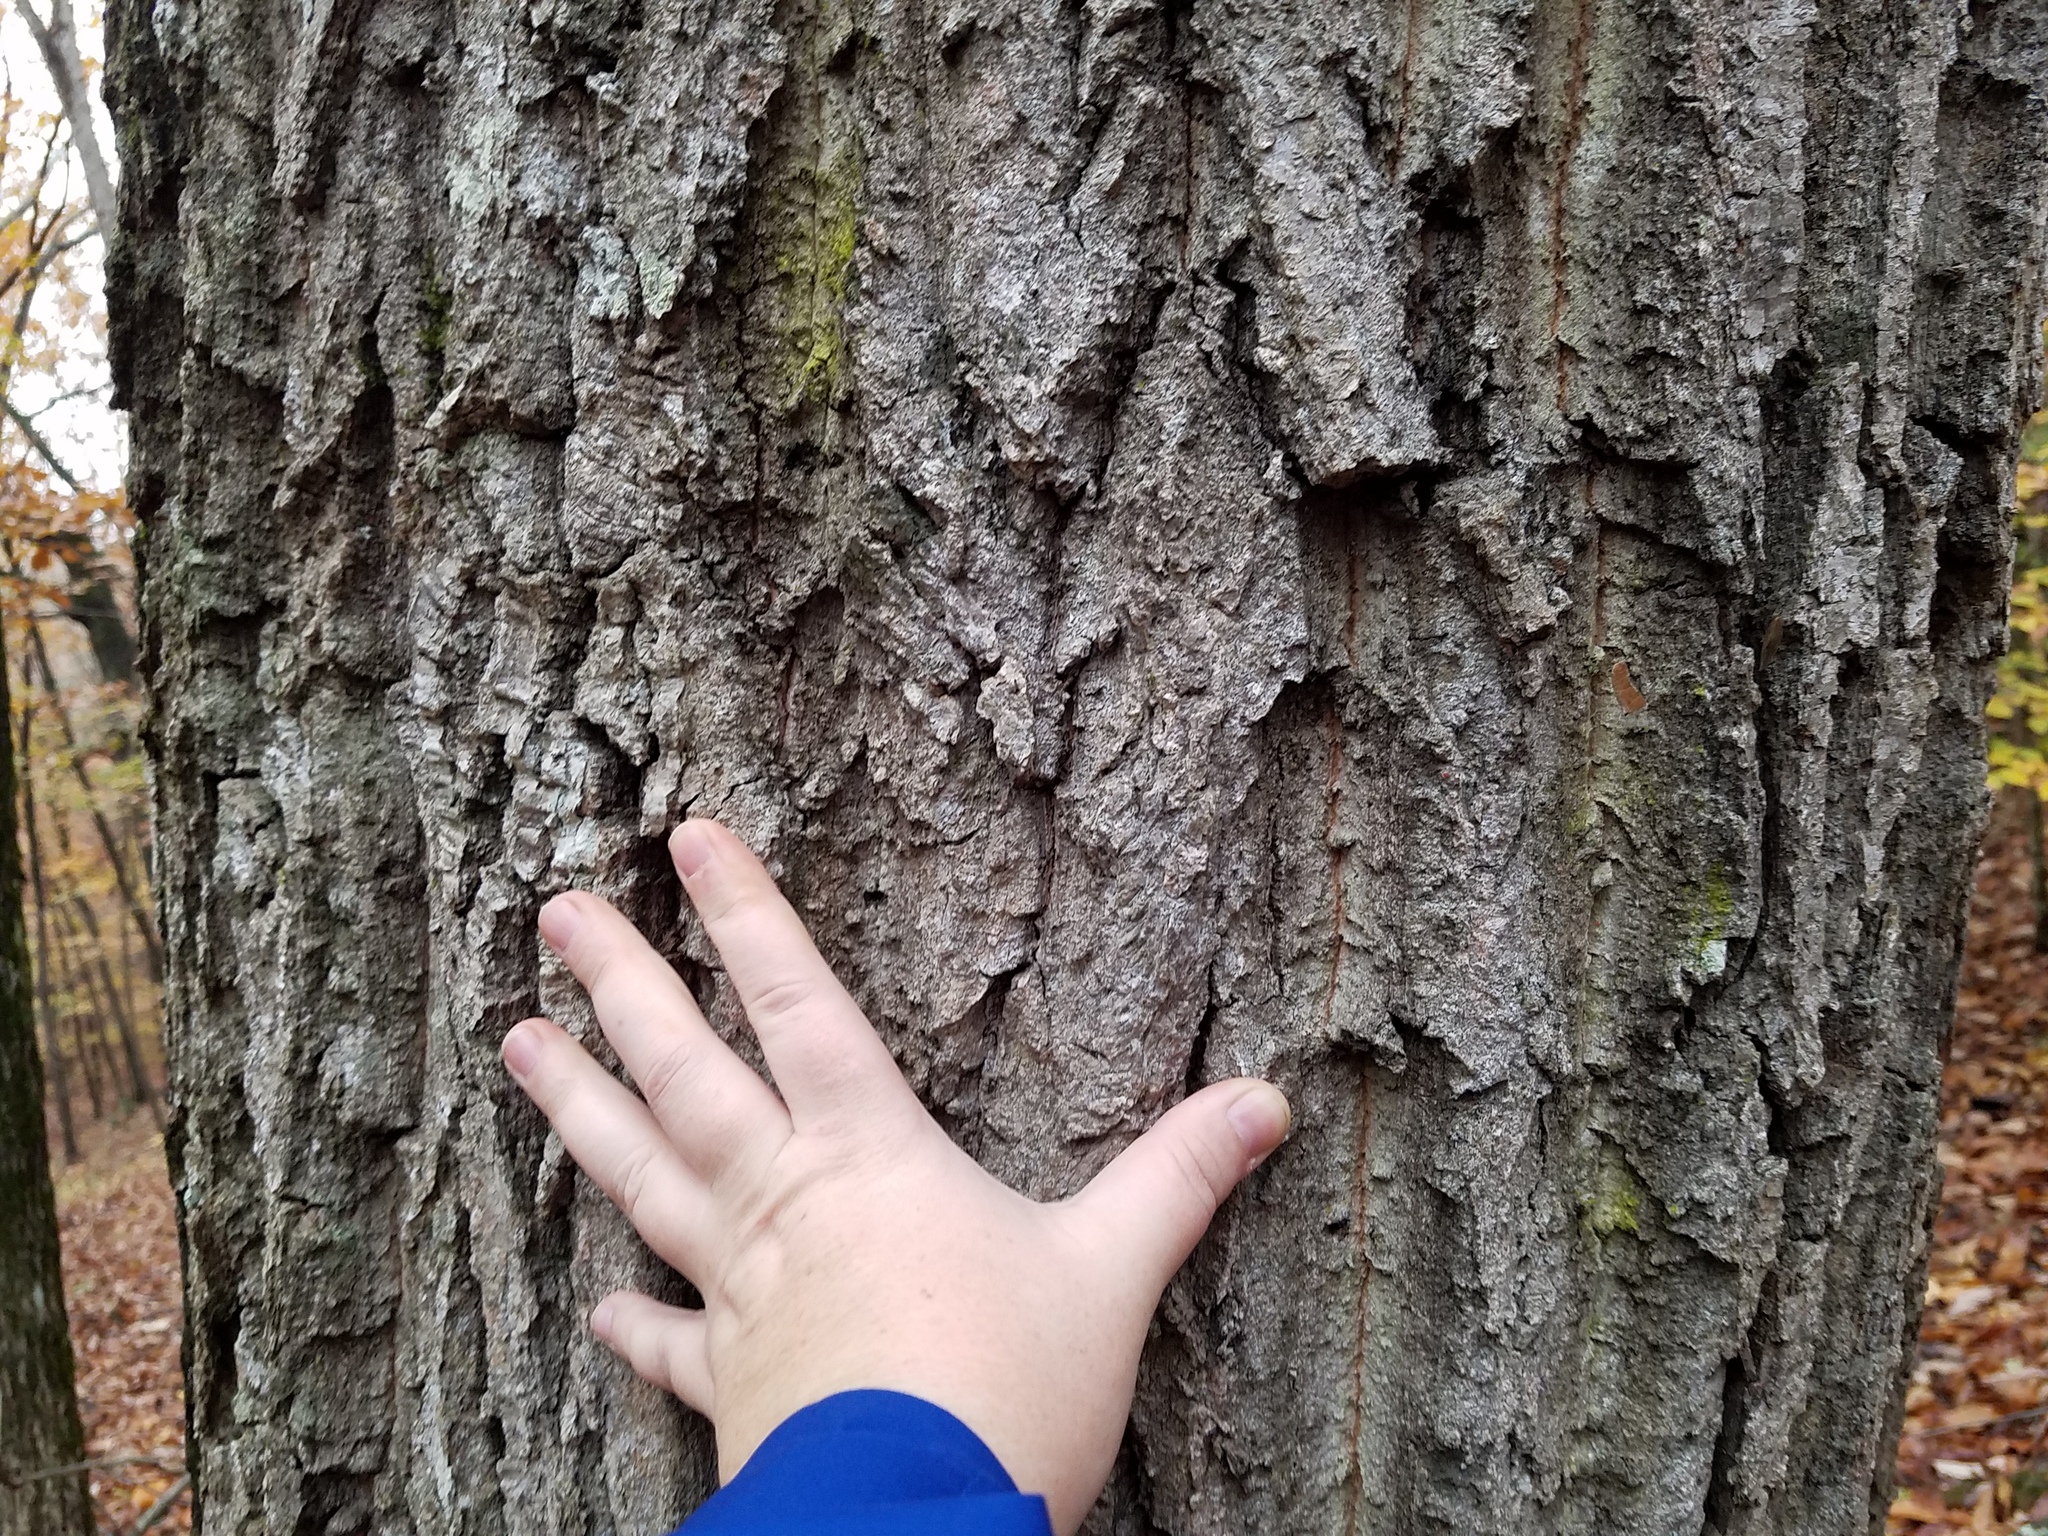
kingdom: Plantae
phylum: Tracheophyta
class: Magnoliopsida
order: Fagales
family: Fagaceae
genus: Quercus
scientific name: Quercus montana
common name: Chestnut oak
